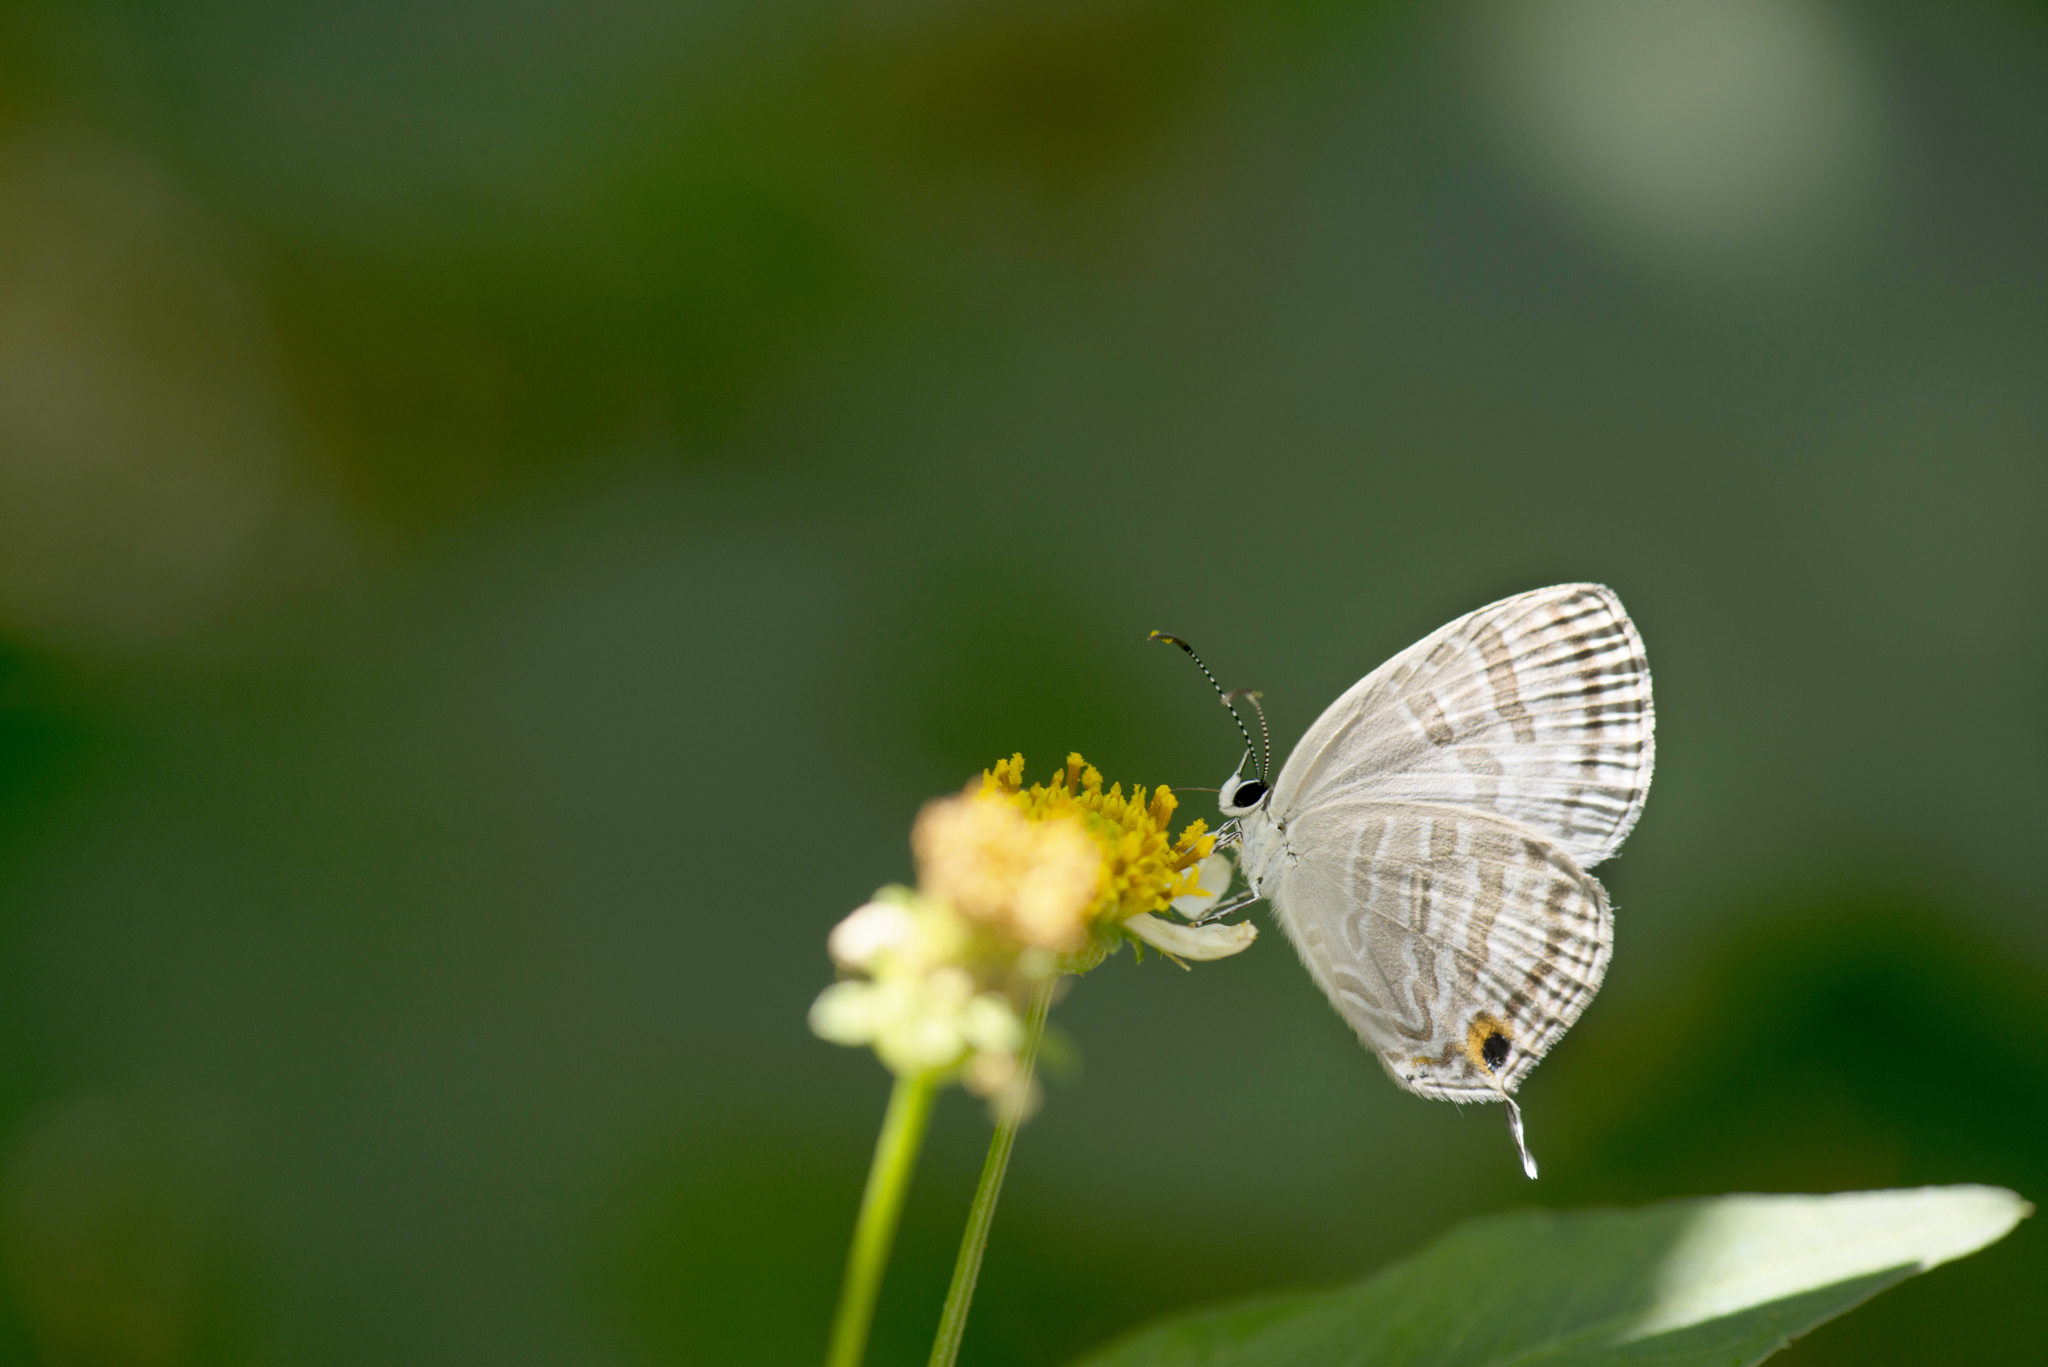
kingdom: Animalia
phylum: Arthropoda
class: Insecta
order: Lepidoptera
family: Lycaenidae
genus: Jamides
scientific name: Jamides celeno
